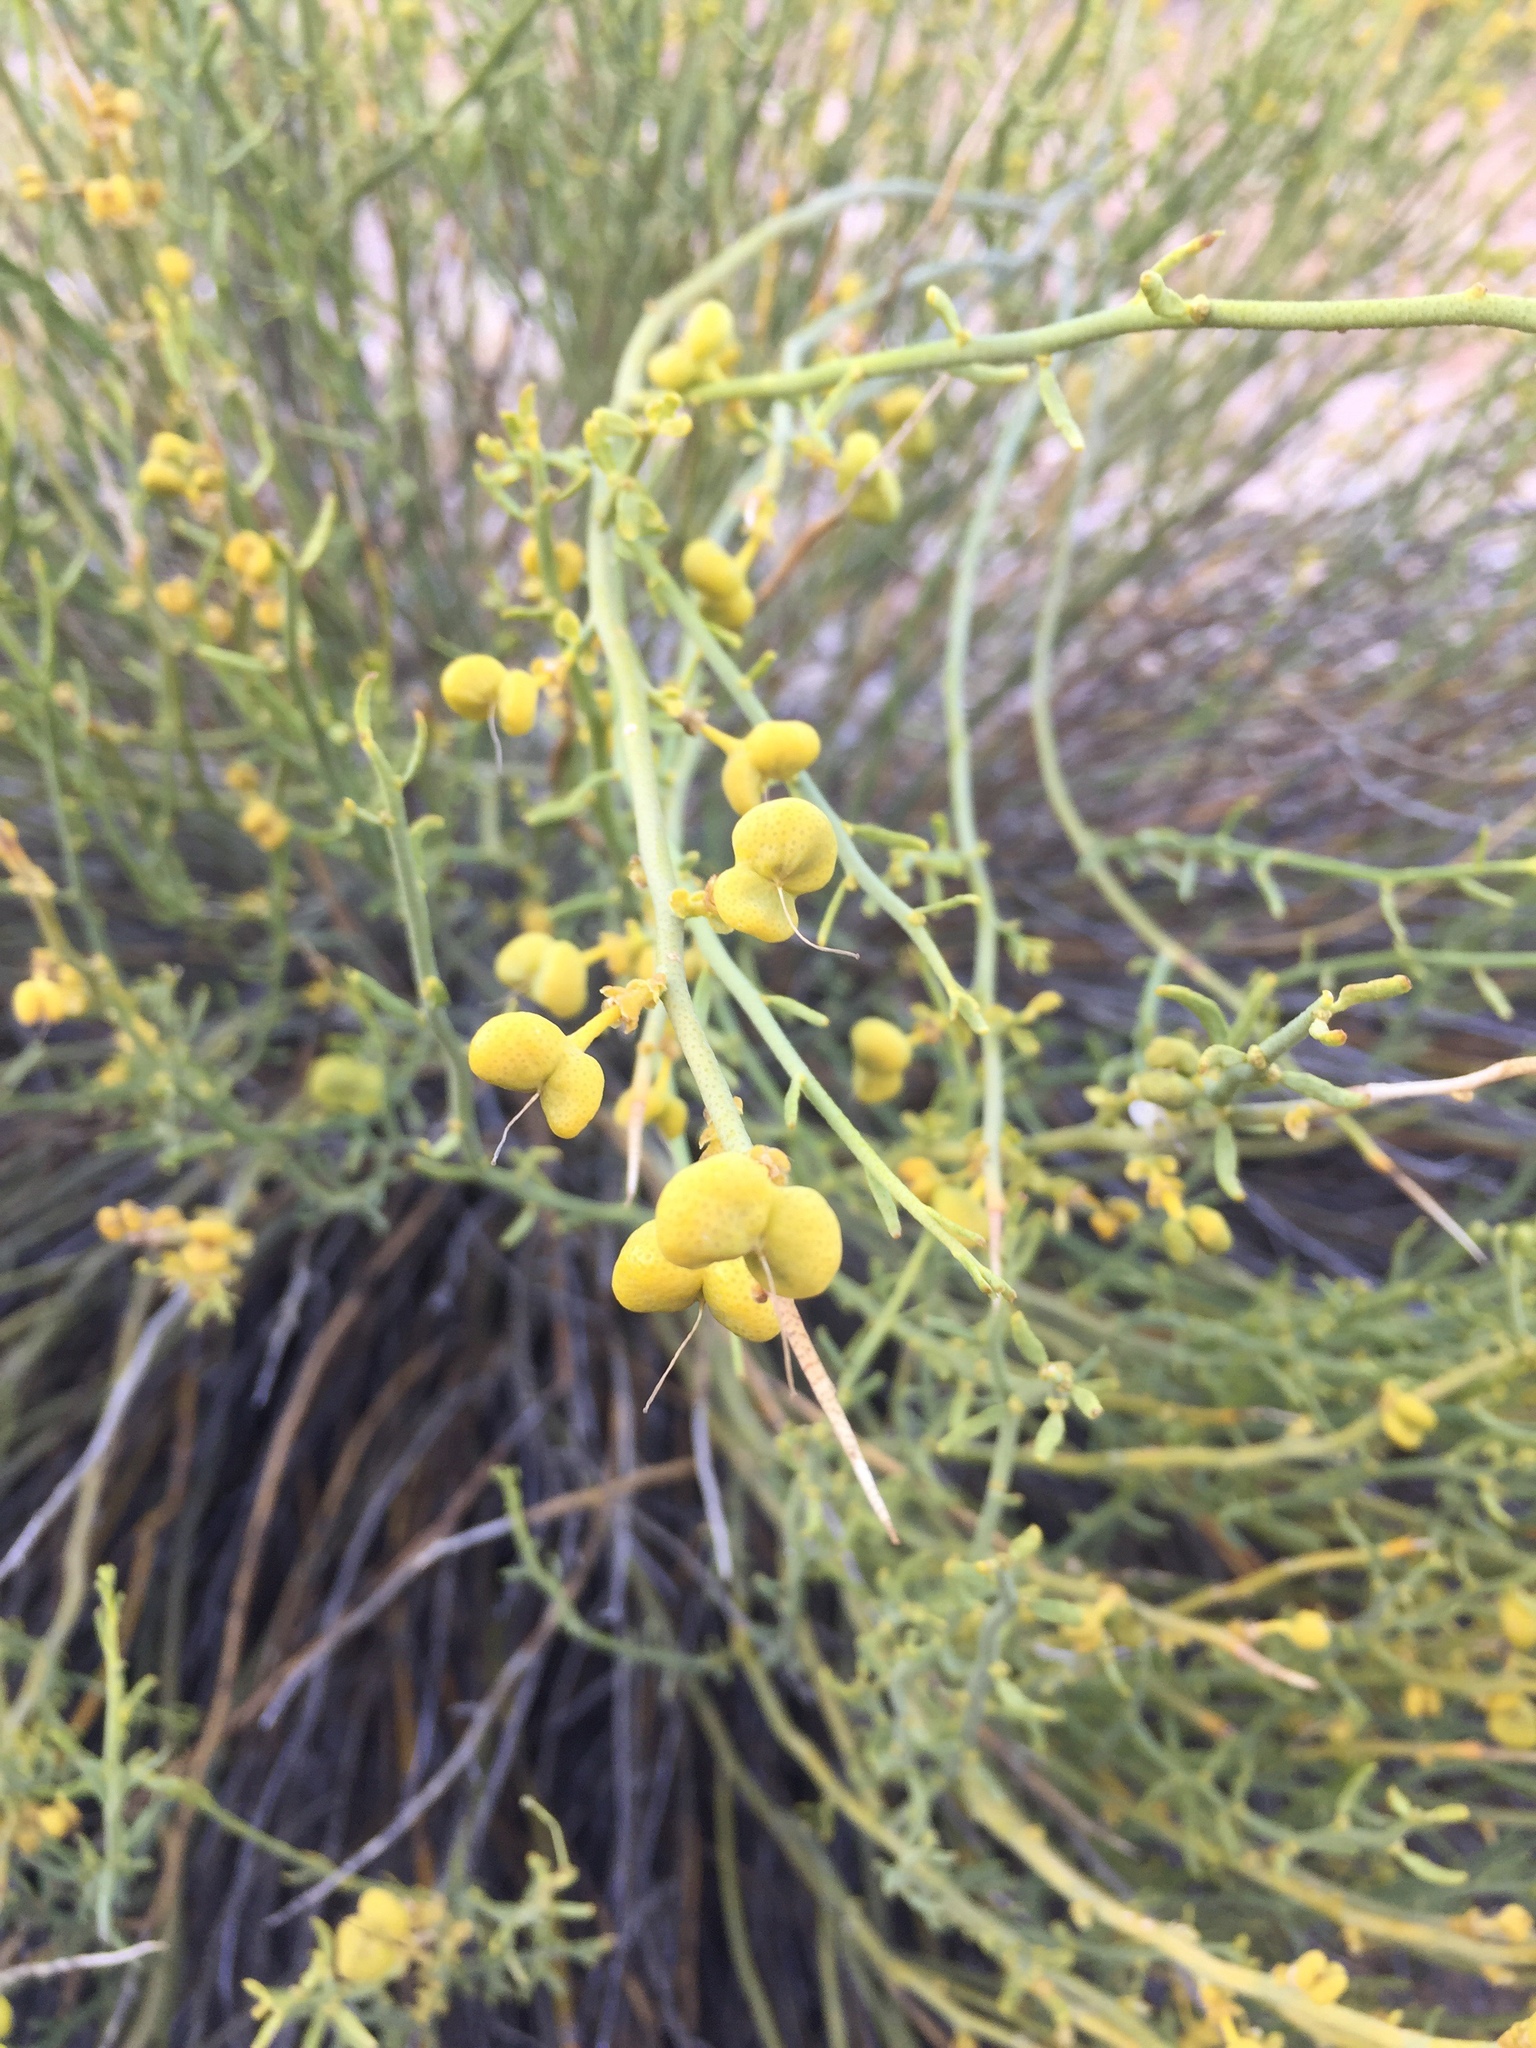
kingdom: Plantae
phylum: Tracheophyta
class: Magnoliopsida
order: Sapindales
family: Rutaceae
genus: Thamnosma
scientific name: Thamnosma montana
